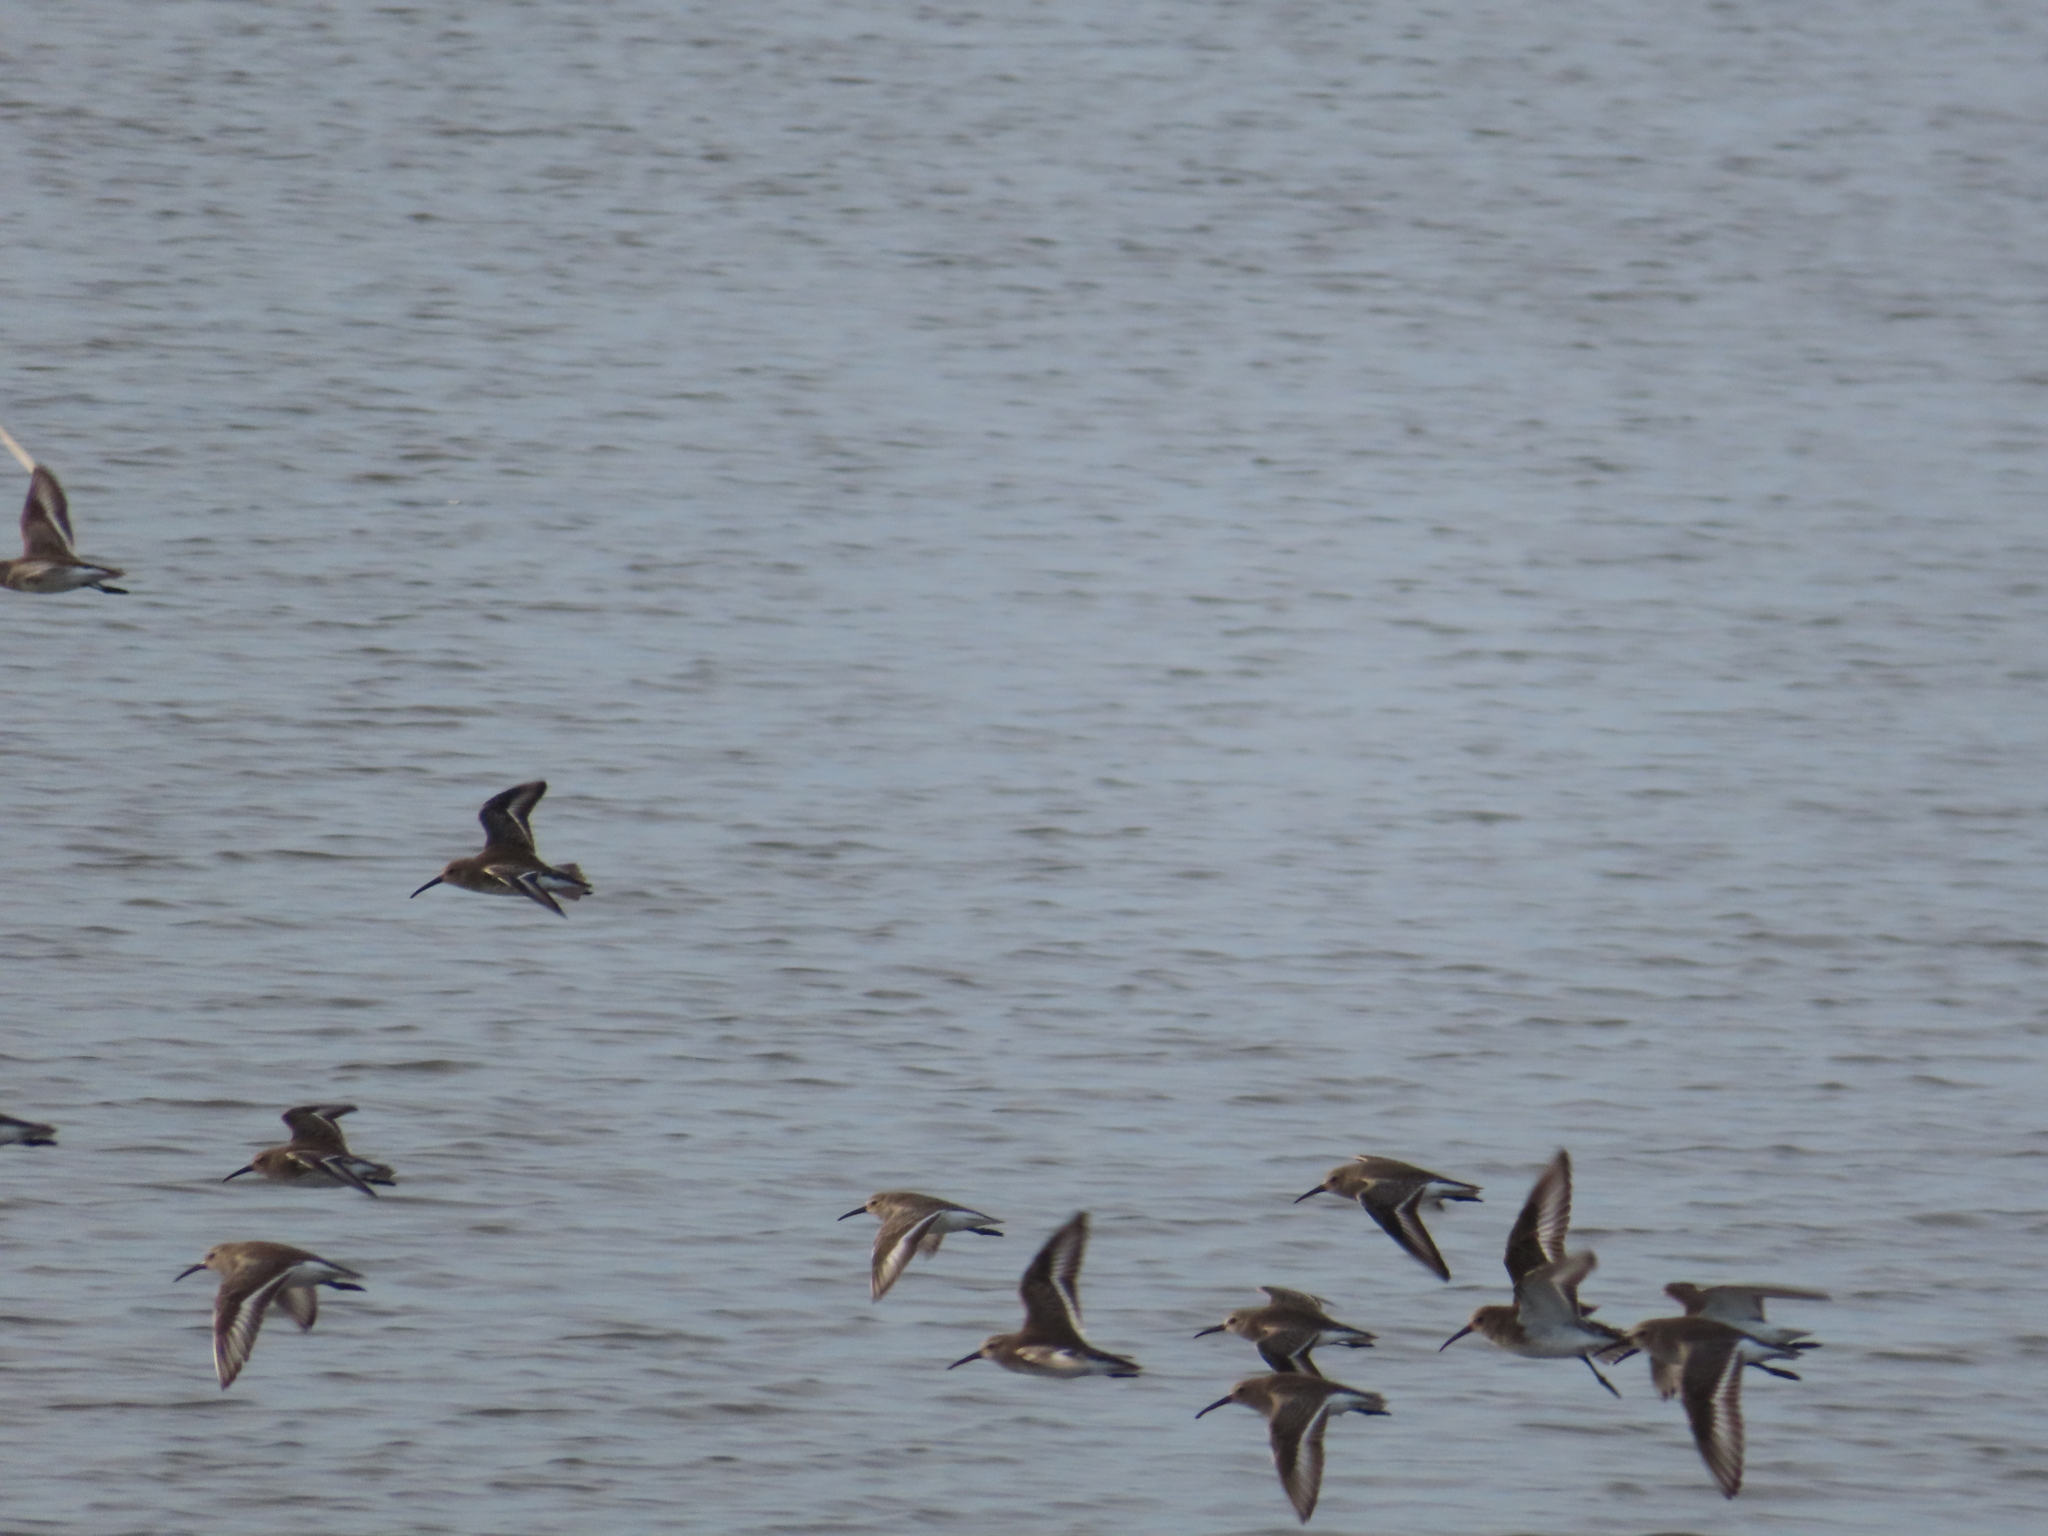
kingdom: Animalia
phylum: Chordata
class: Aves
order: Charadriiformes
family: Scolopacidae
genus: Calidris
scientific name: Calidris alpina
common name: Dunlin
